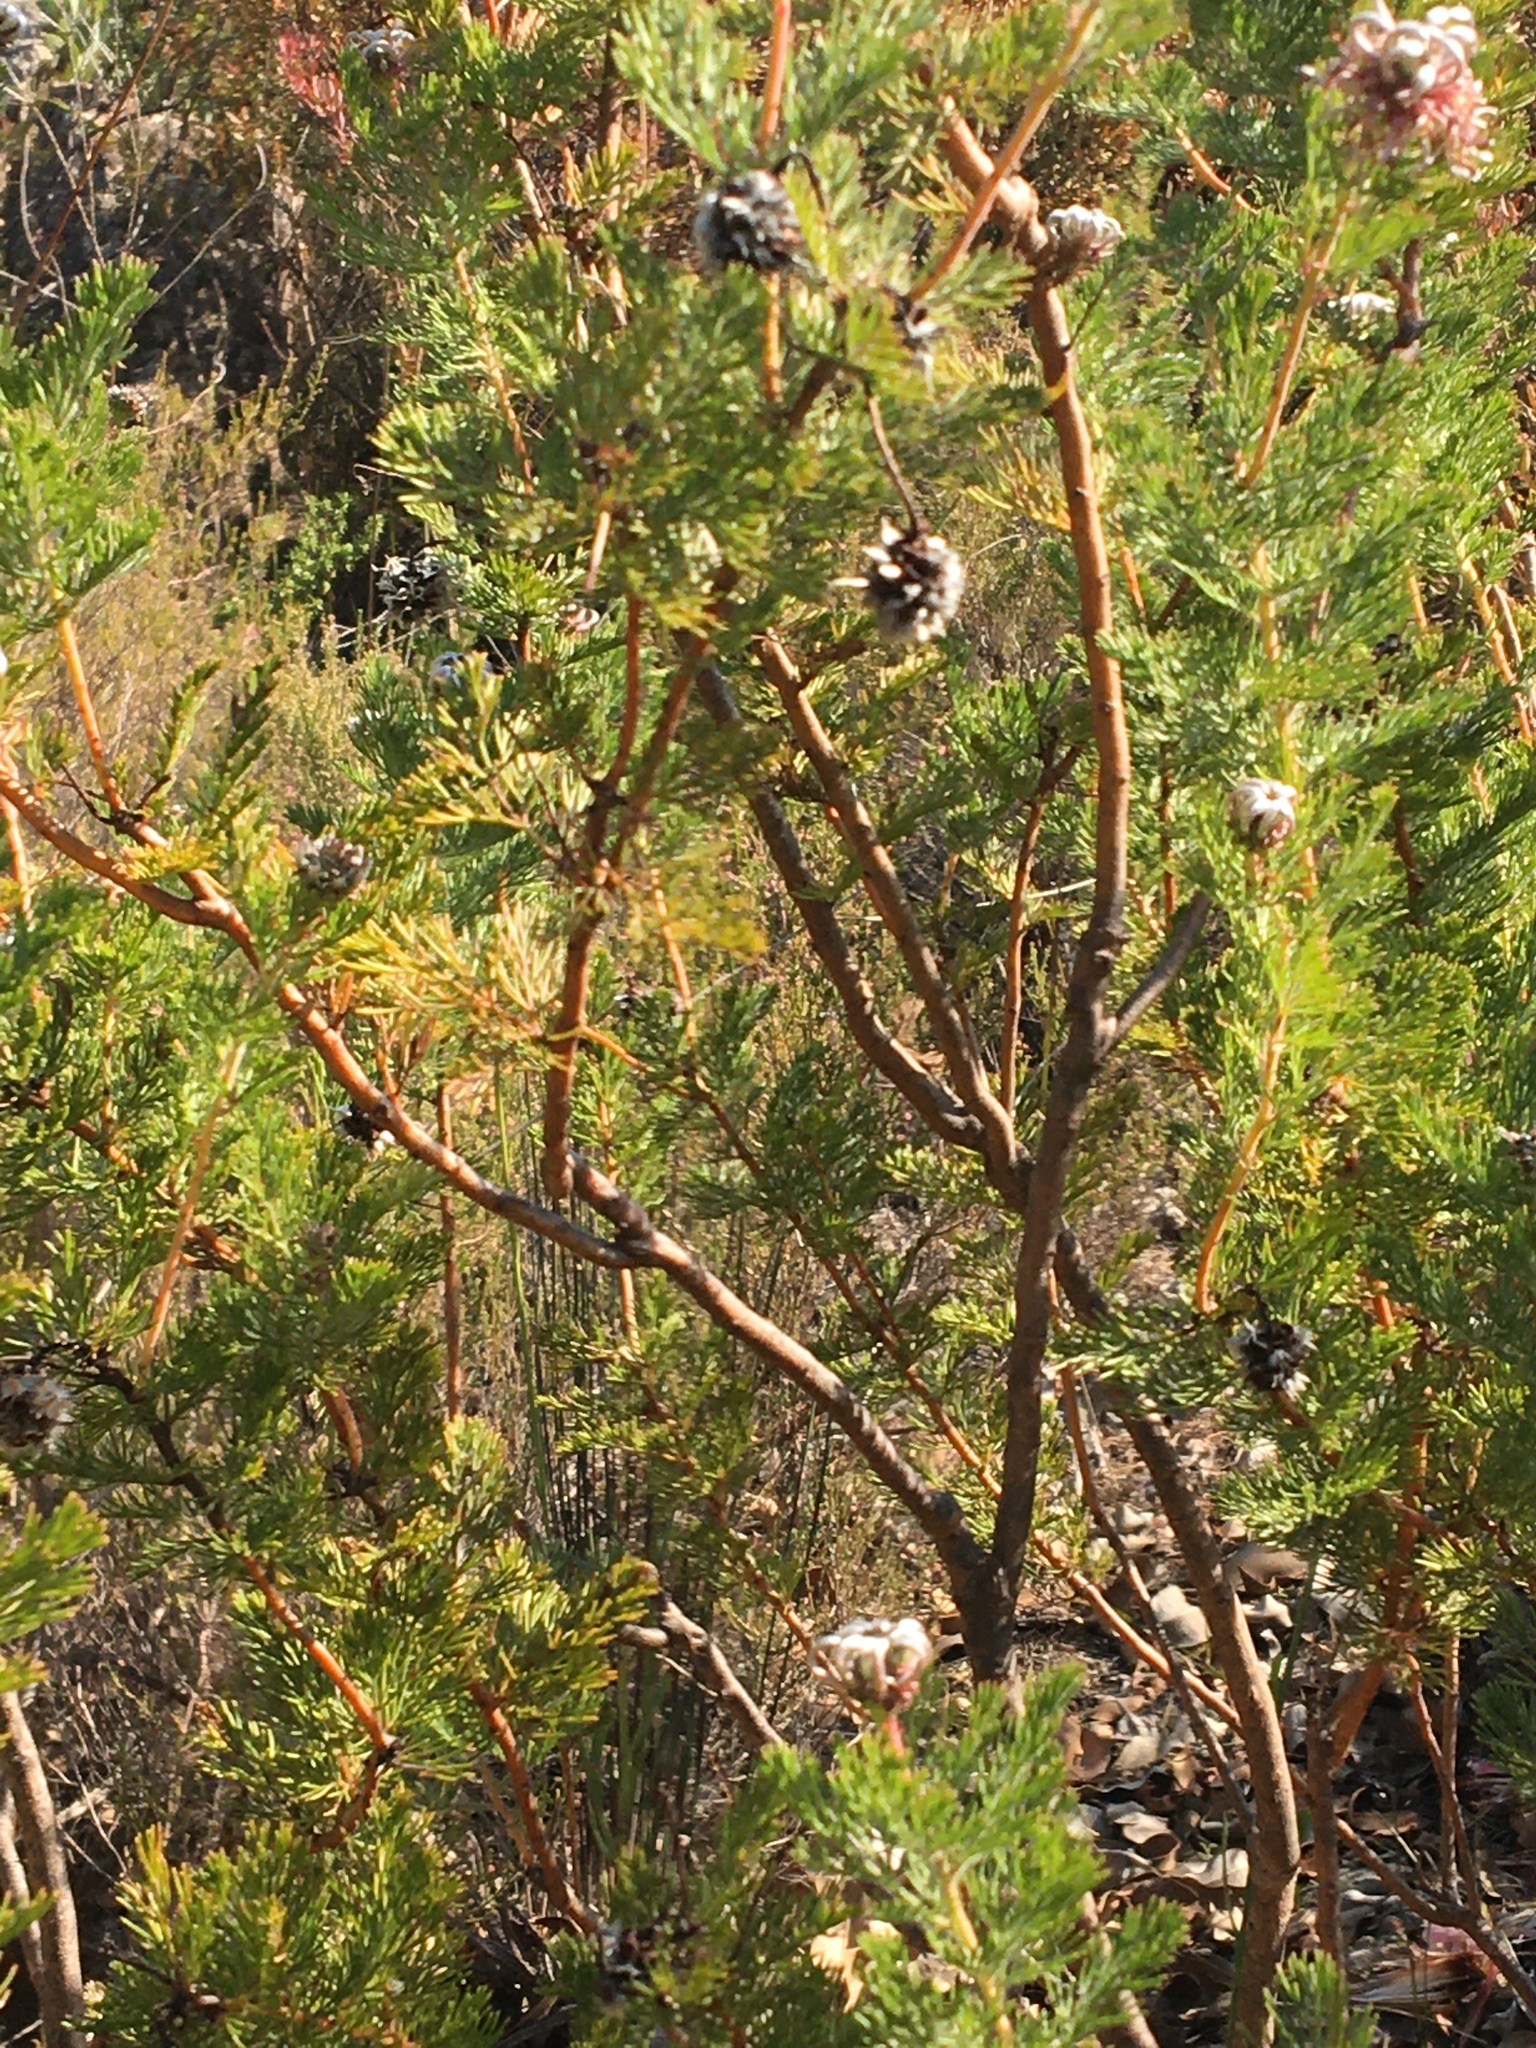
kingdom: Plantae
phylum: Tracheophyta
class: Magnoliopsida
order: Proteales
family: Proteaceae
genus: Serruria
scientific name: Serruria acrocarpa
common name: Common rootstock spiderhead
